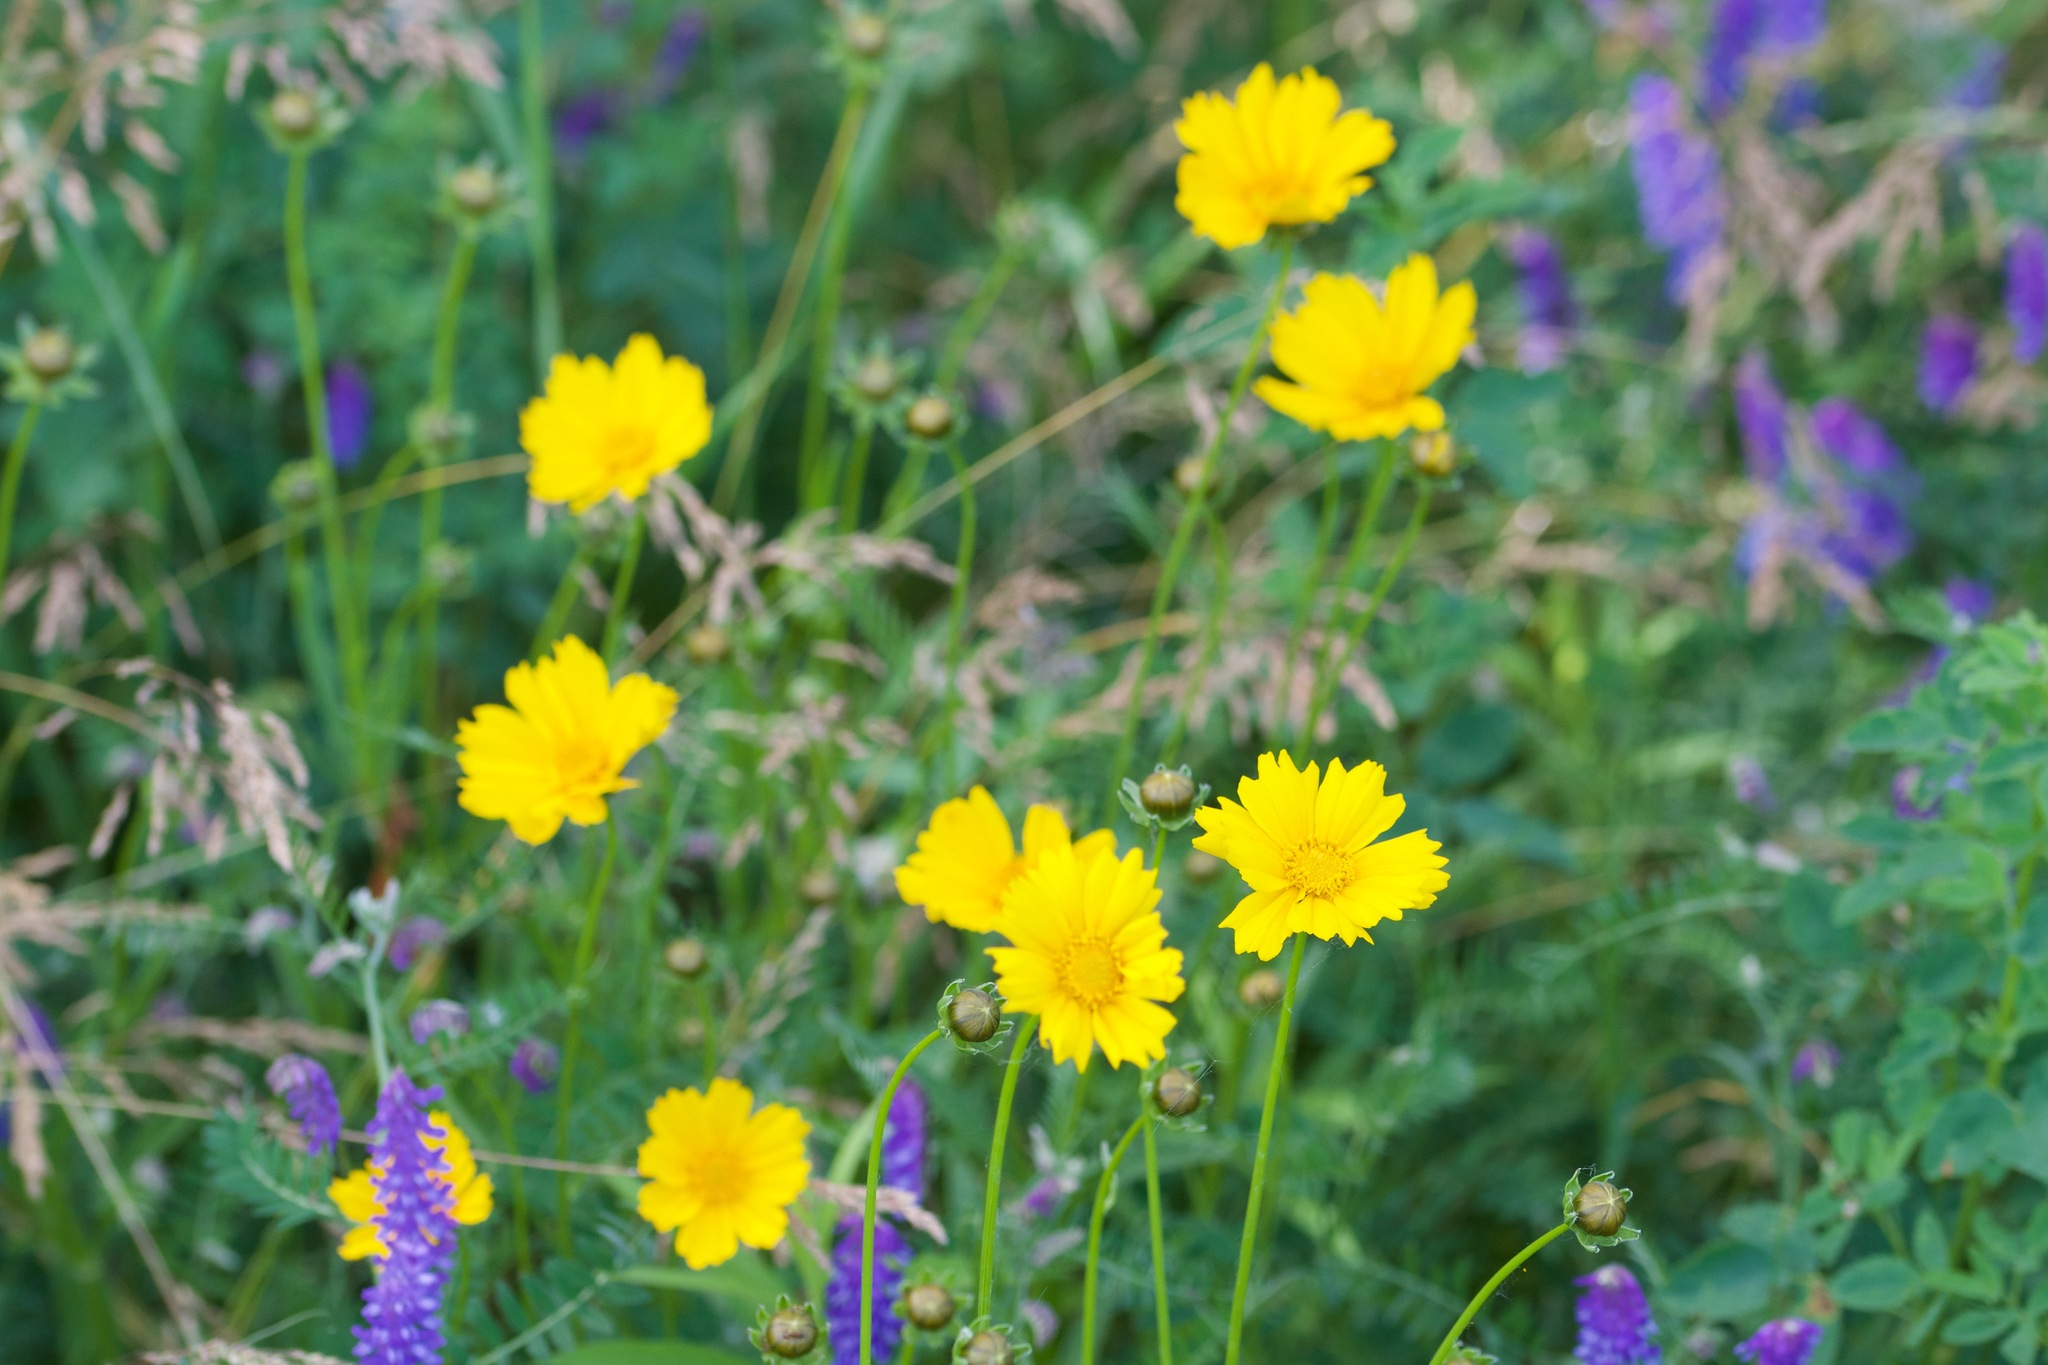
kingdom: Plantae
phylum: Tracheophyta
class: Magnoliopsida
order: Asterales
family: Asteraceae
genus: Coreopsis
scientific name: Coreopsis lanceolata
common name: Garden coreopsis
